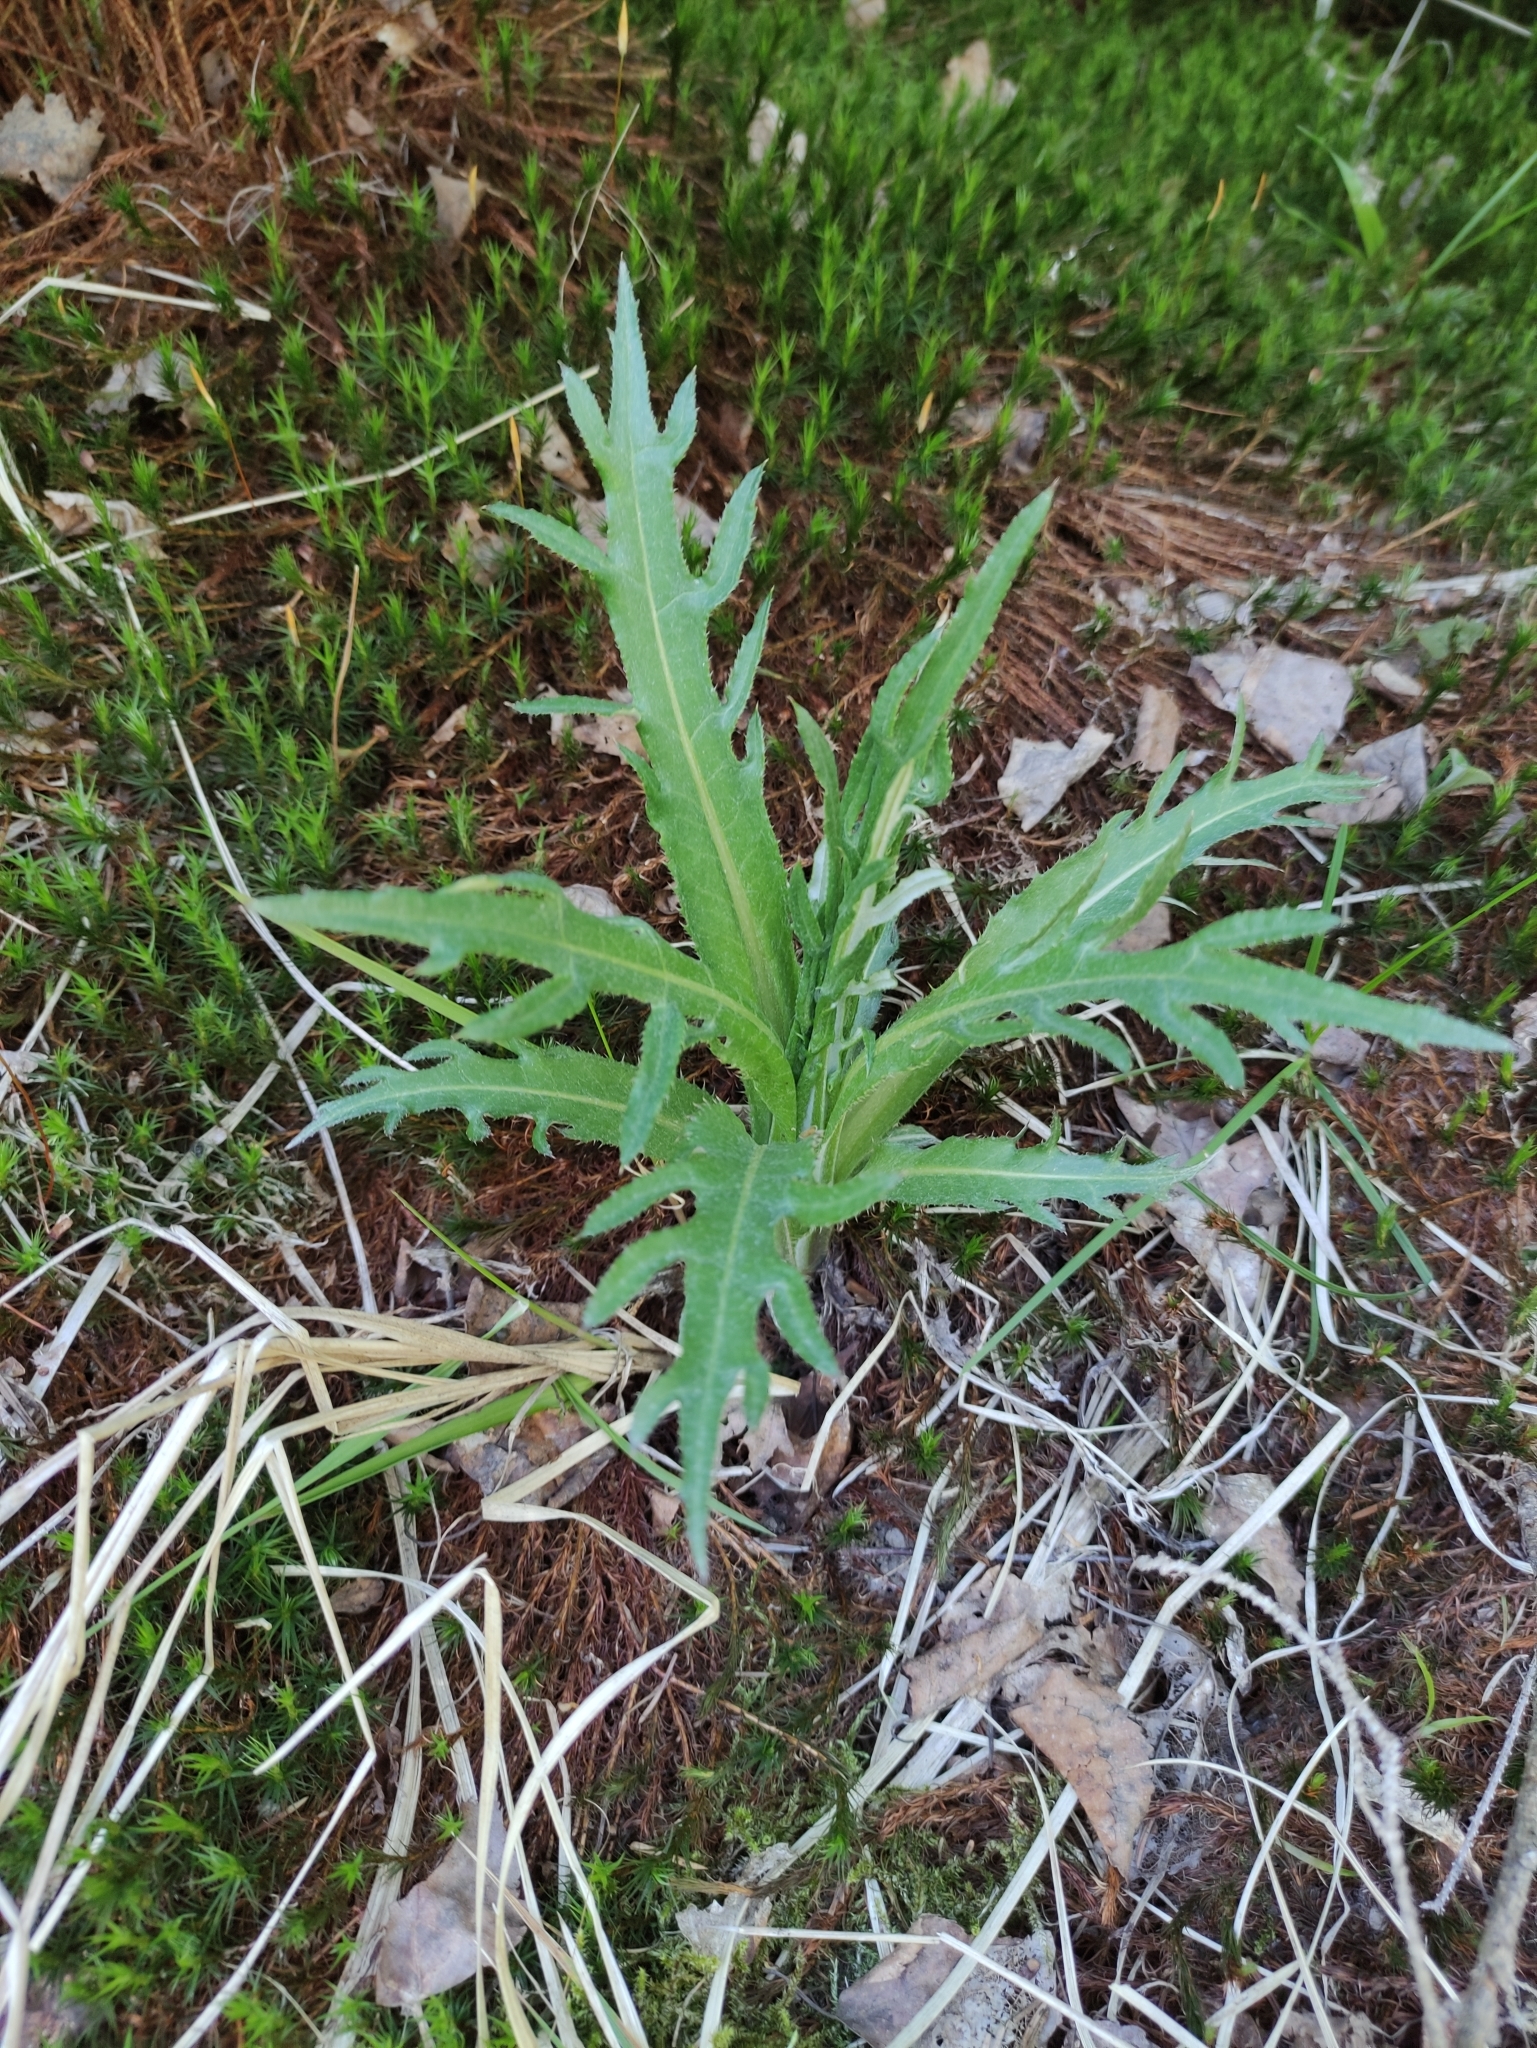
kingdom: Plantae
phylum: Tracheophyta
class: Magnoliopsida
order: Asterales
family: Asteraceae
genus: Cirsium
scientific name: Cirsium heterophyllum
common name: Melancholy thistle
